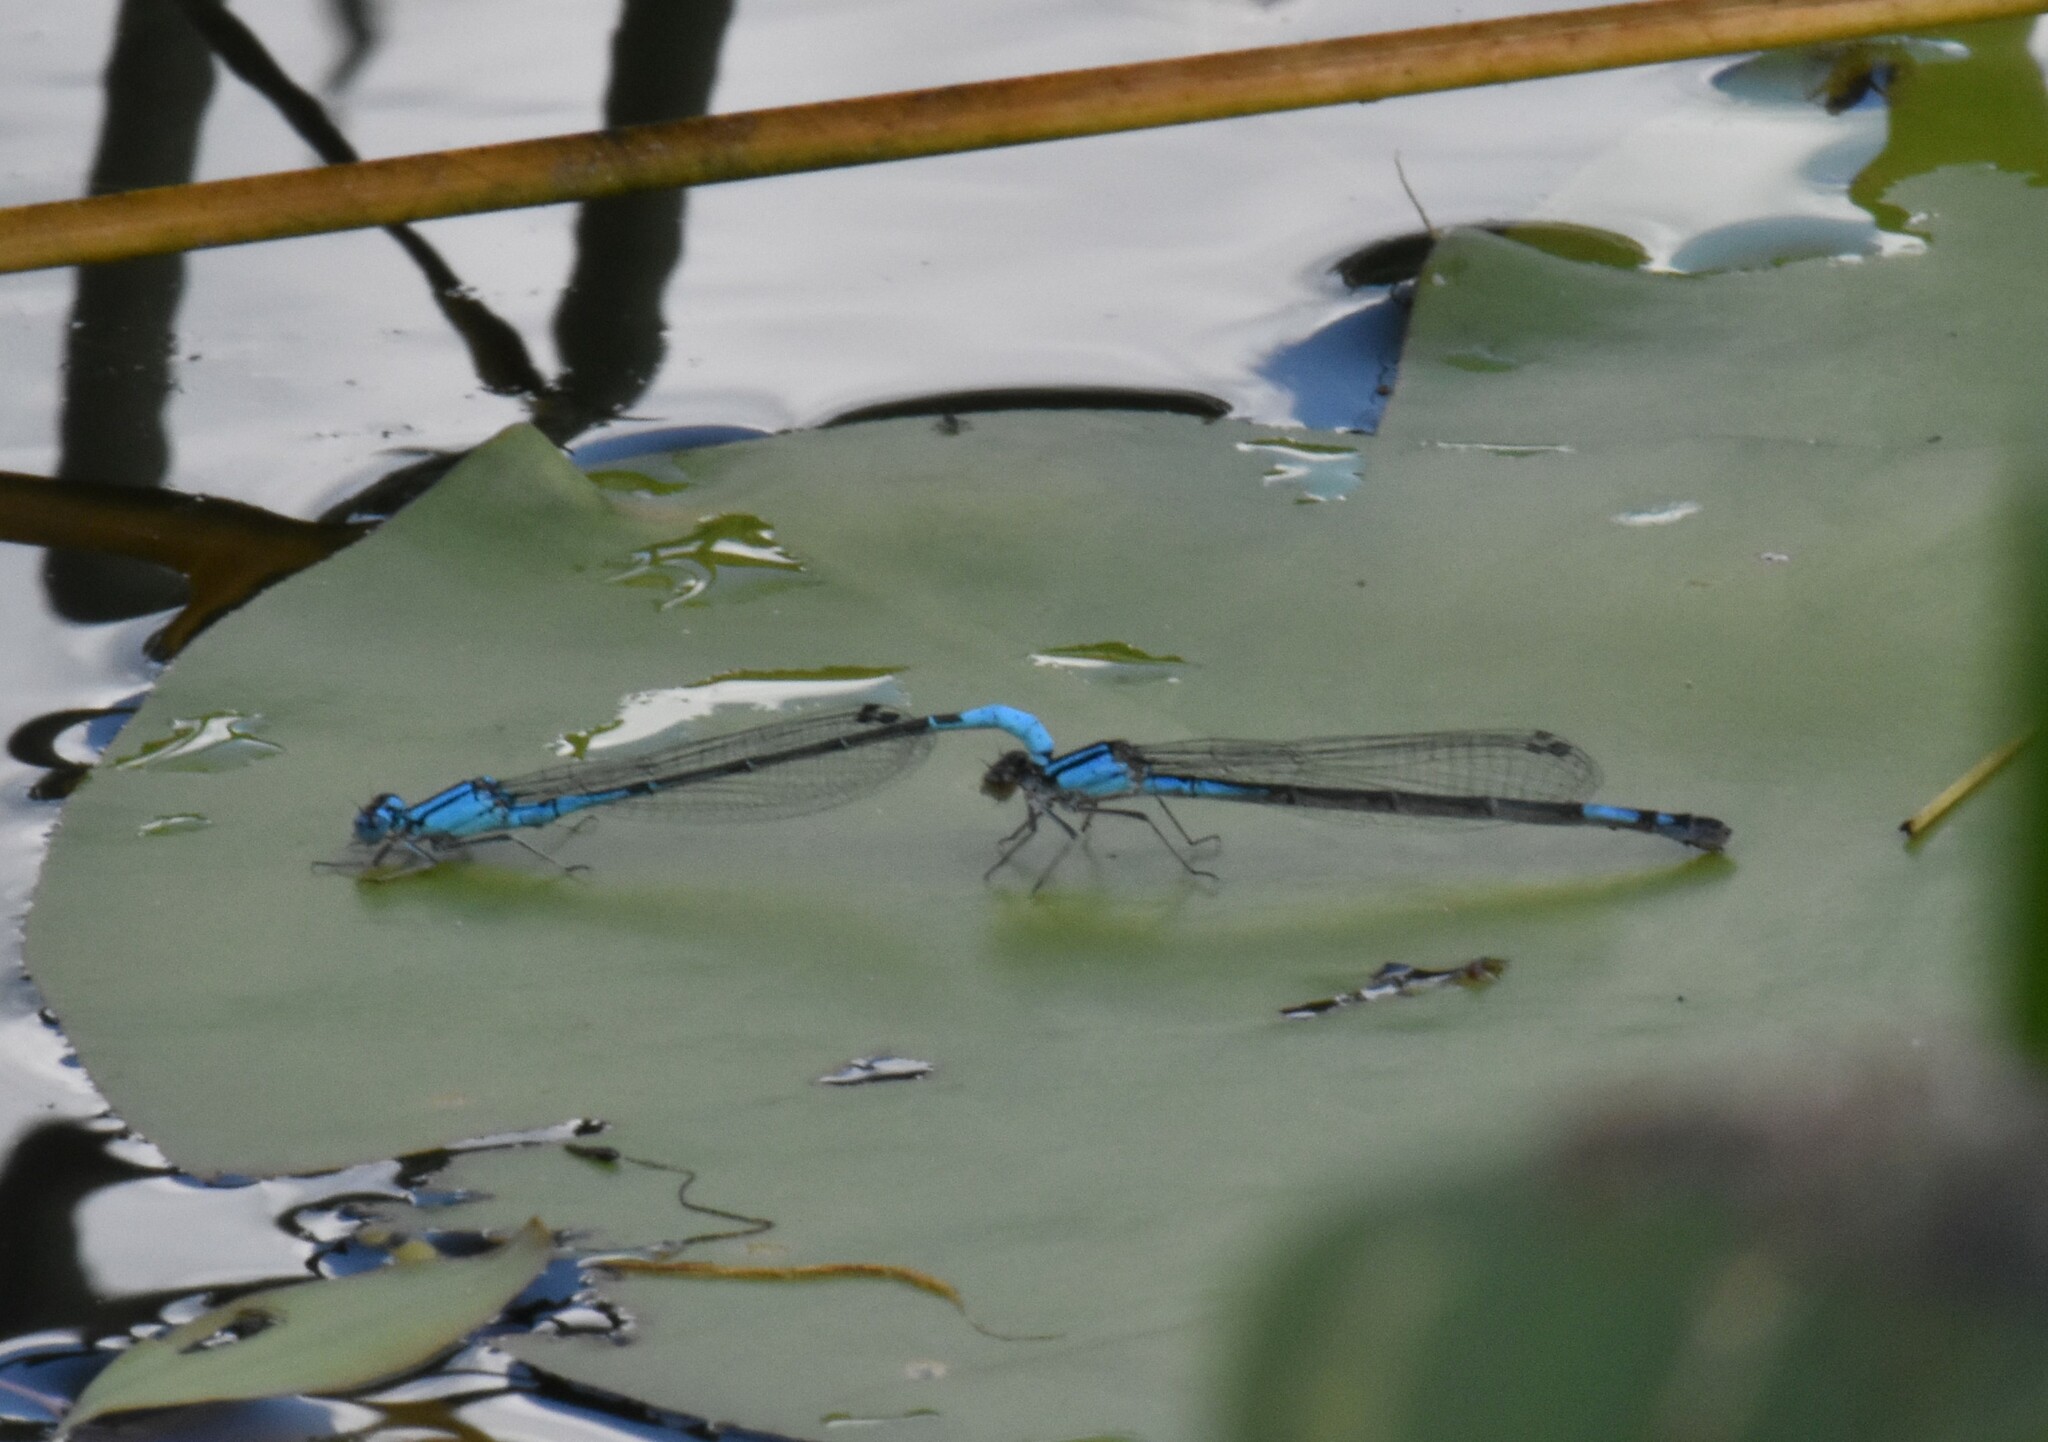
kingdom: Animalia
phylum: Arthropoda
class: Insecta
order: Odonata
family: Coenagrionidae
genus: Enallagma
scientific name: Enallagma aspersum
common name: Azure bluet
